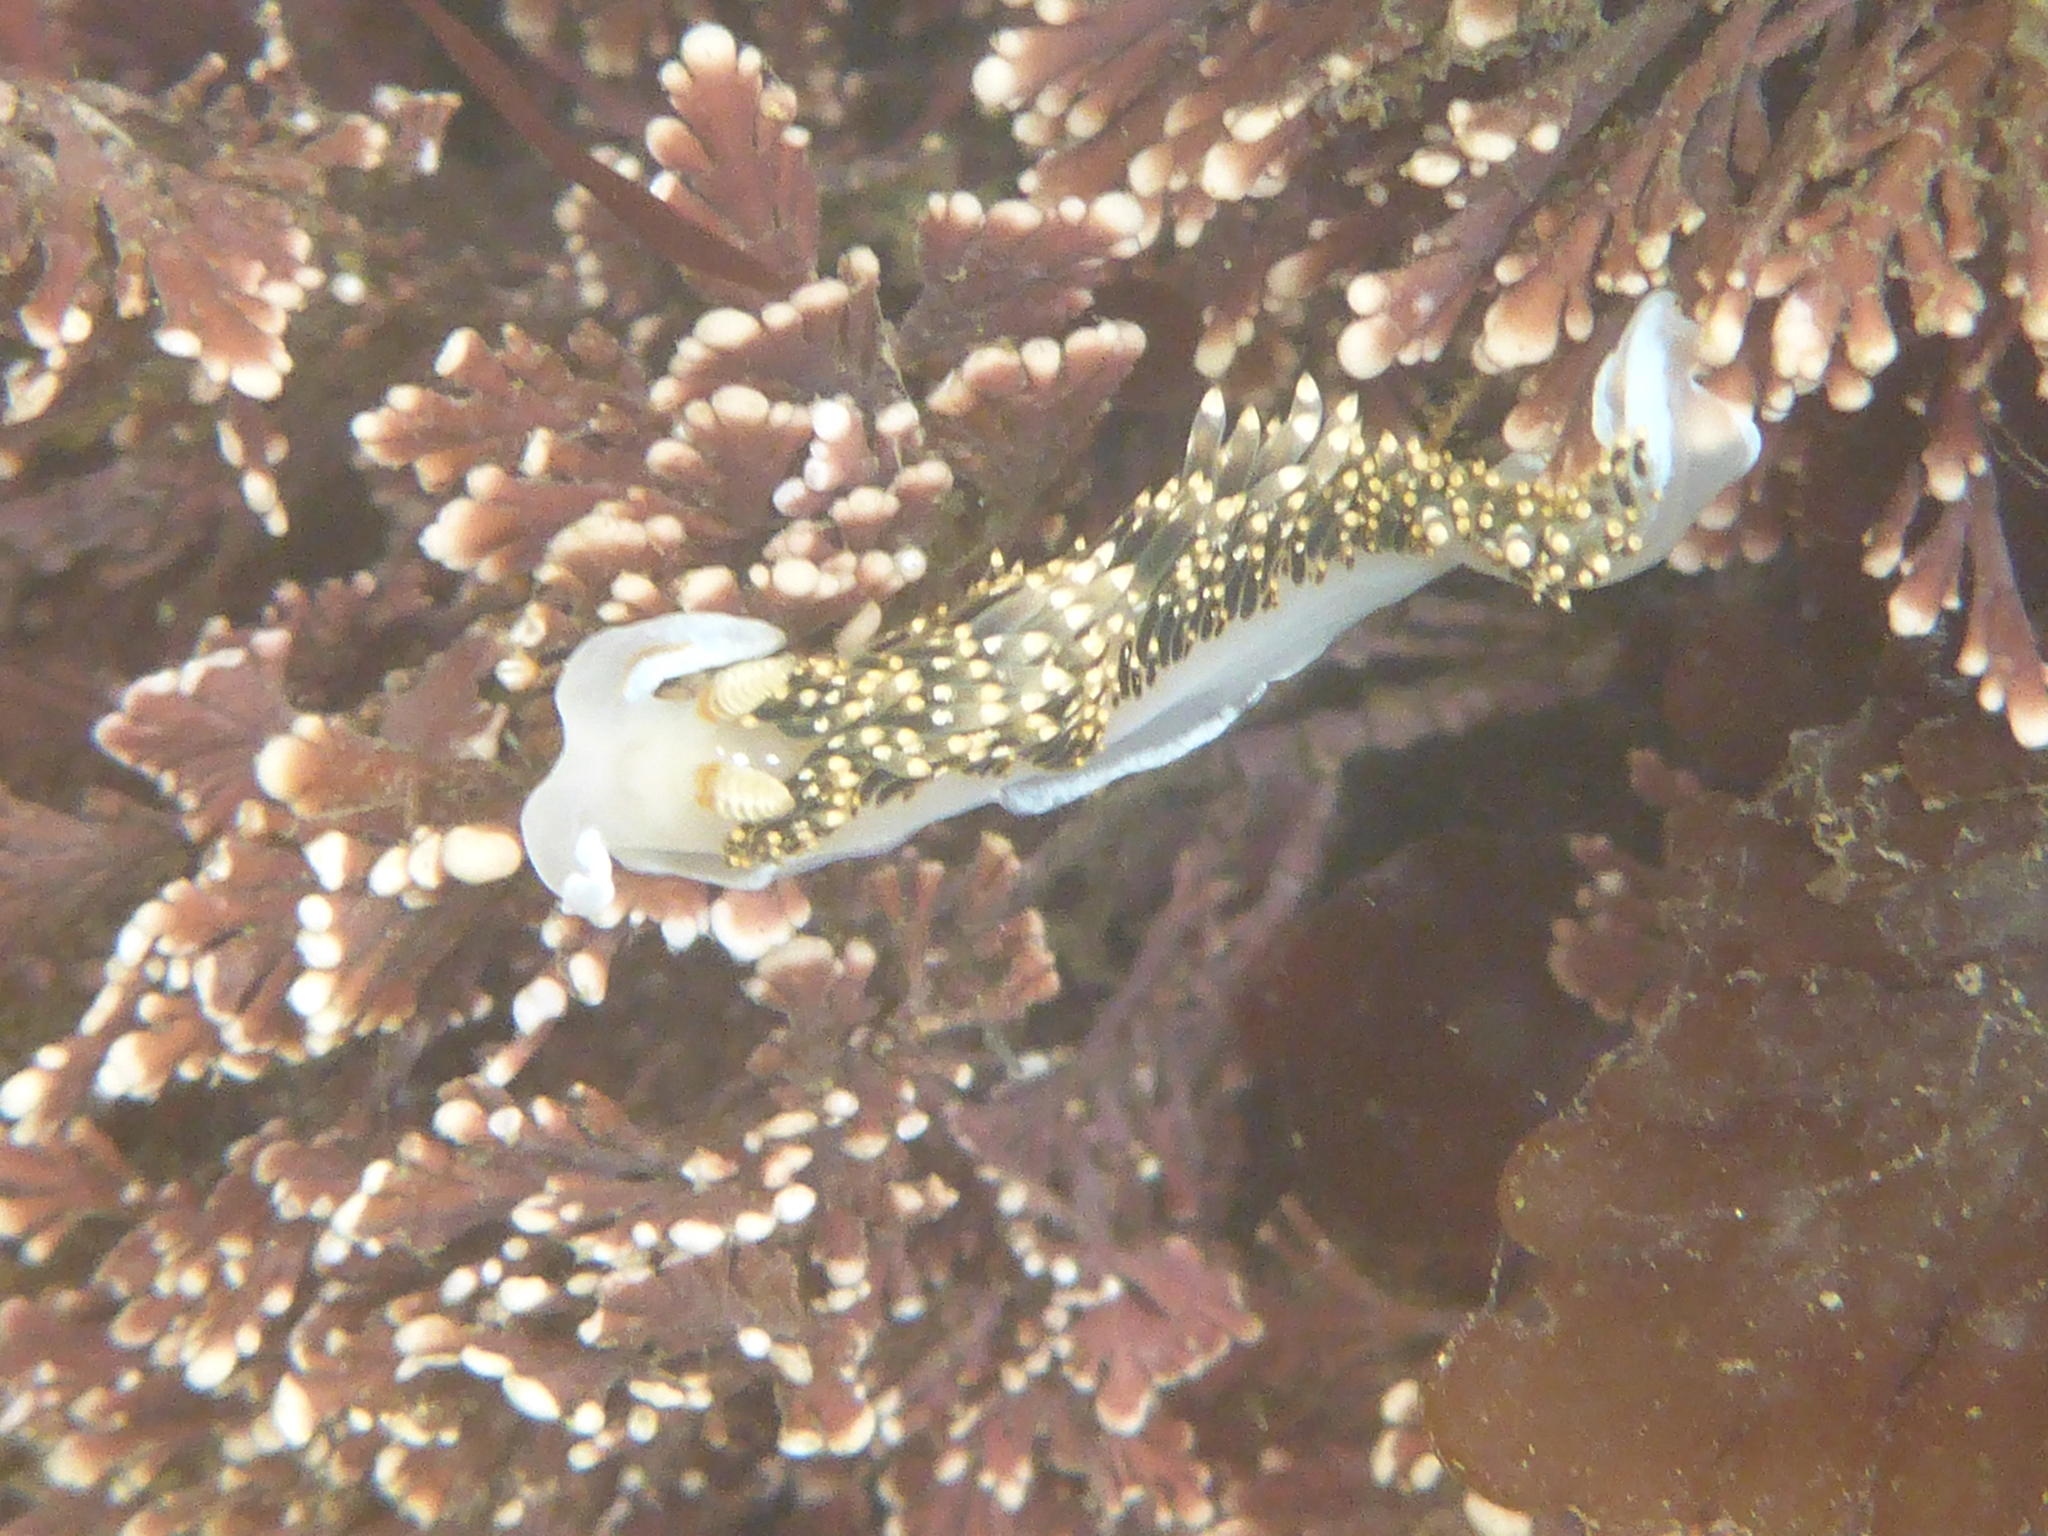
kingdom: Animalia
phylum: Mollusca
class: Gastropoda
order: Nudibranchia
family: Facelinidae
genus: Phidiana
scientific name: Phidiana hiltoni
